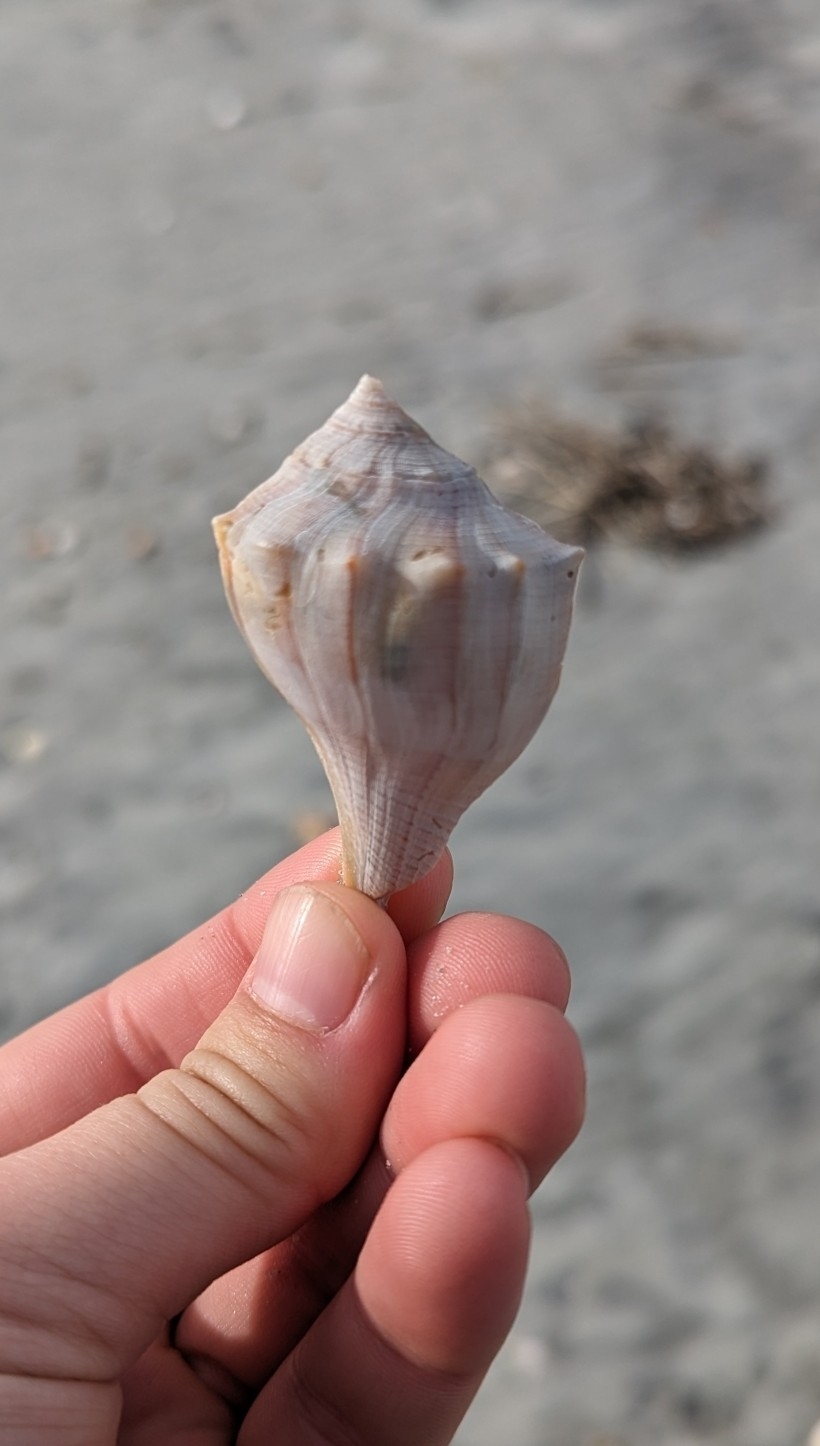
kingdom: Animalia
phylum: Mollusca
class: Gastropoda
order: Neogastropoda
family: Busyconidae
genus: Sinistrofulgur
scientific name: Sinistrofulgur sinistrum
